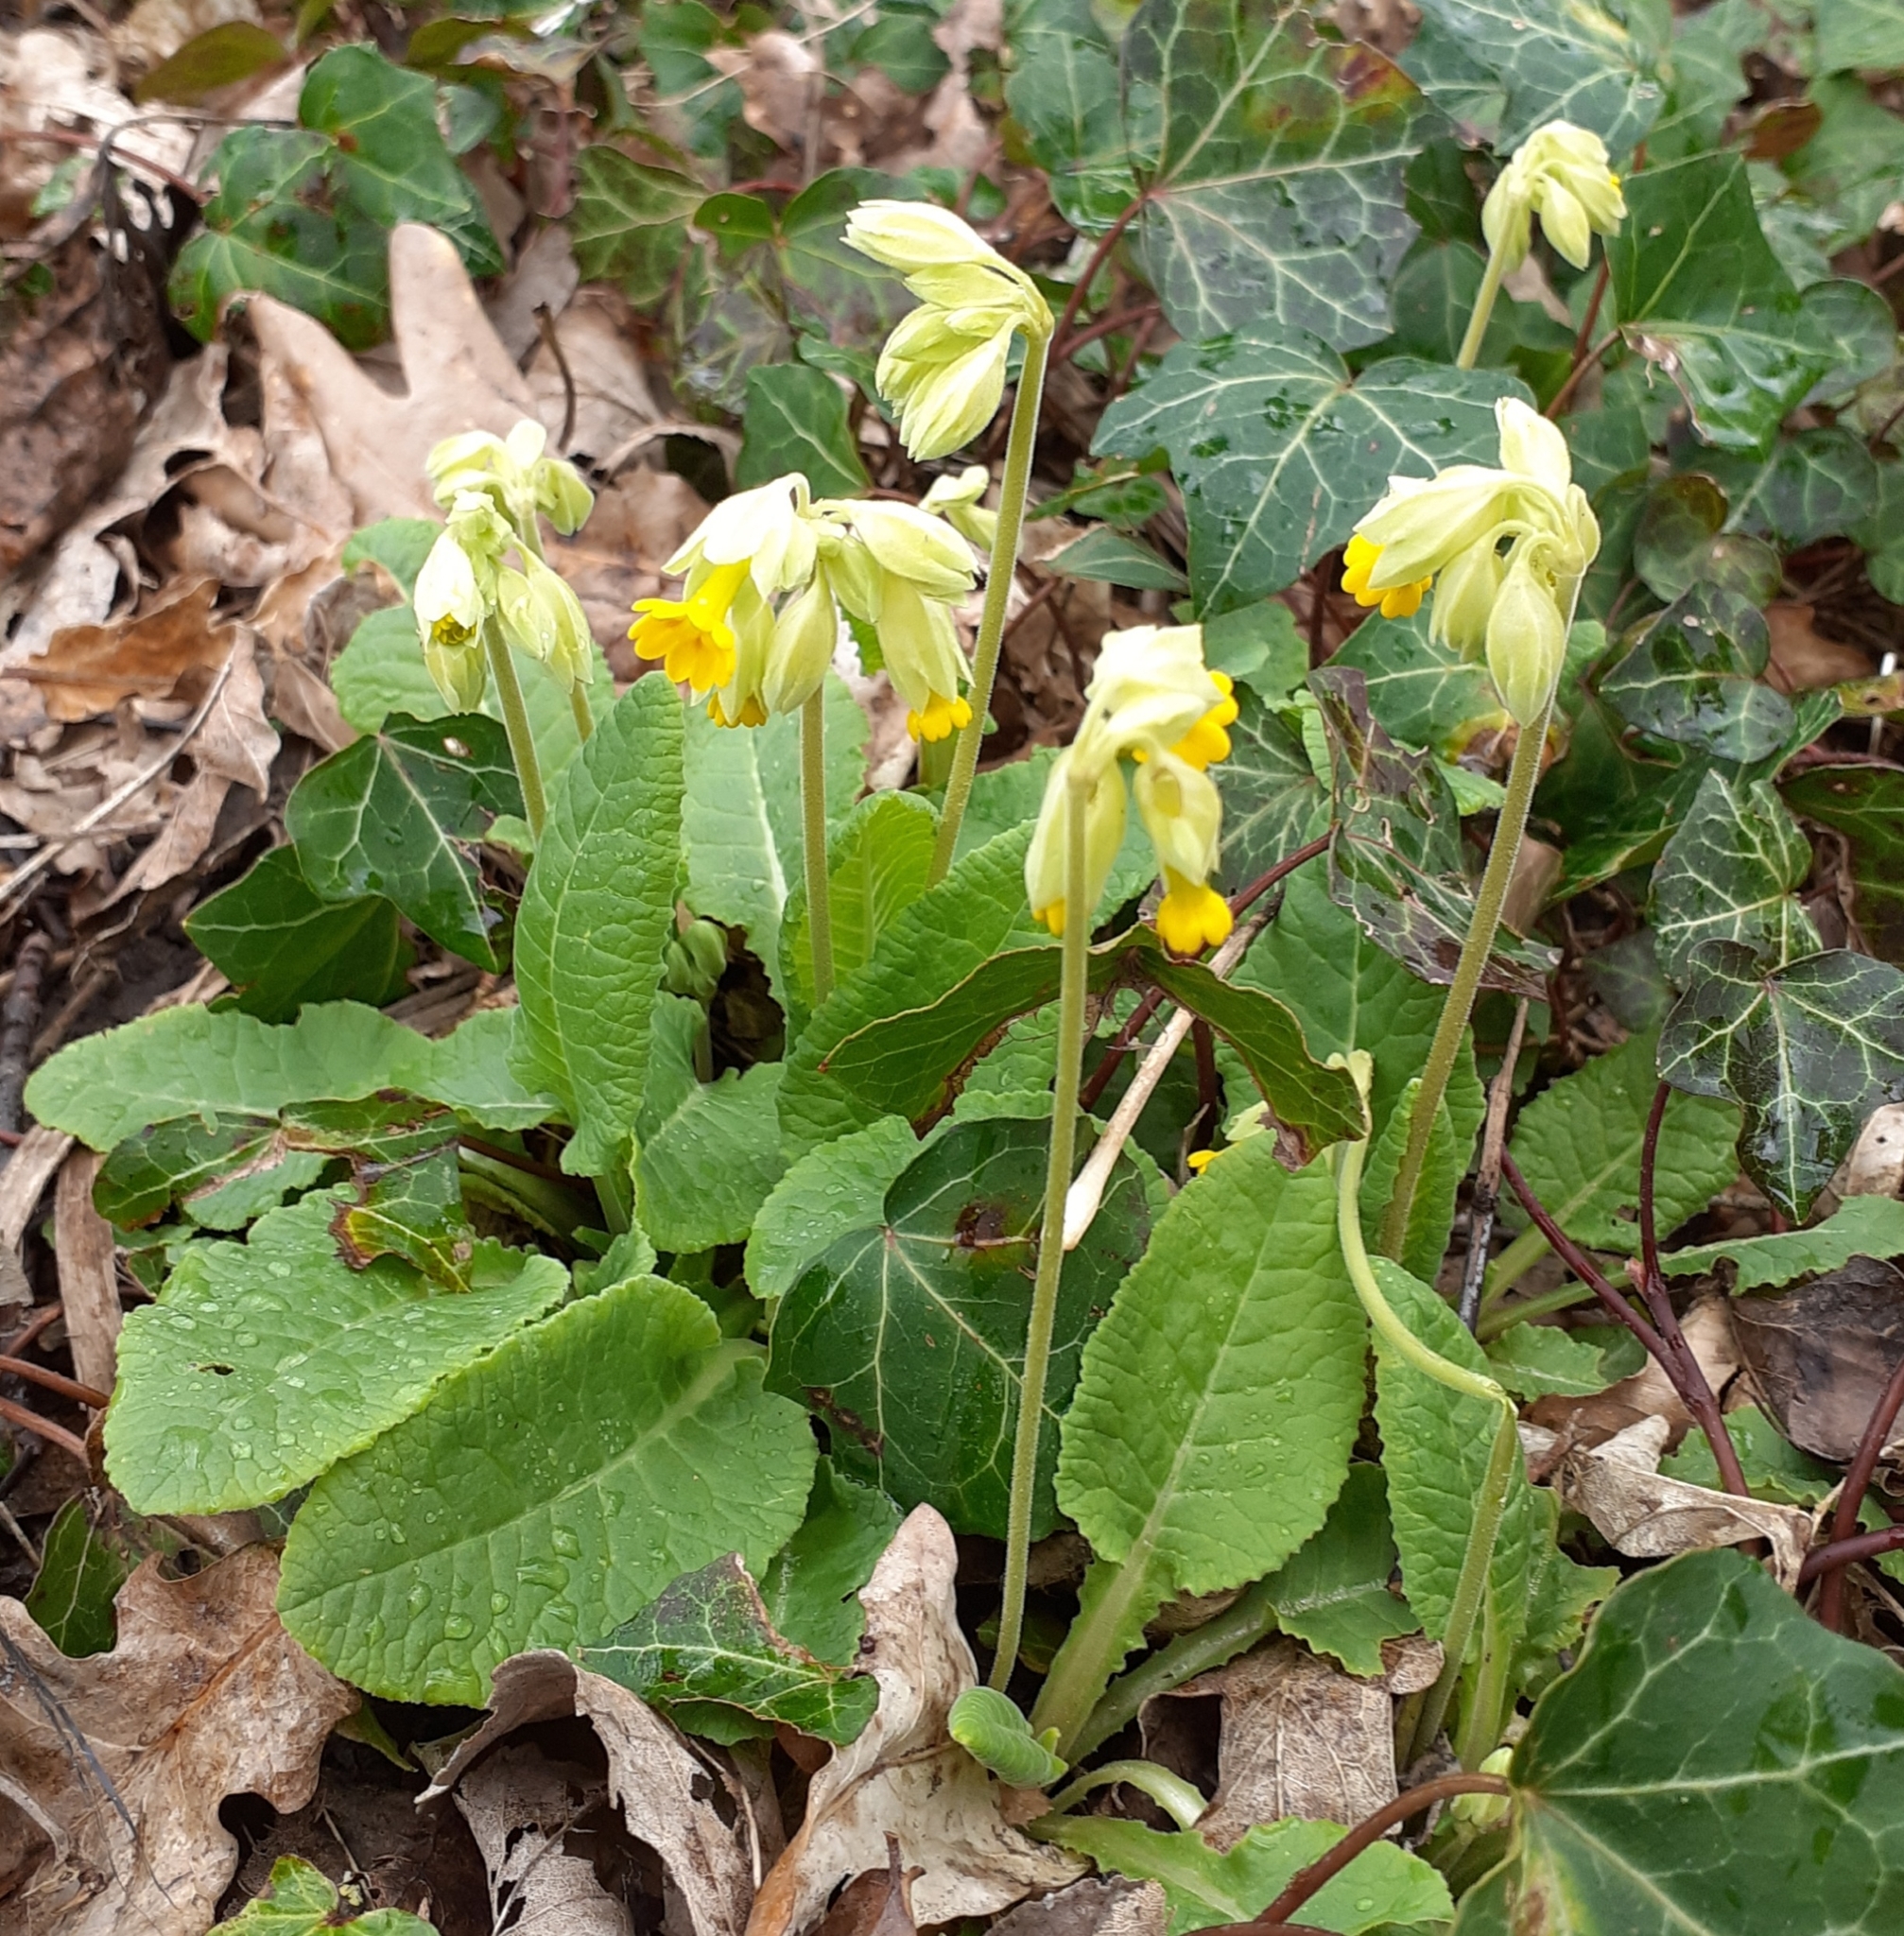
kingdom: Plantae
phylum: Tracheophyta
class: Magnoliopsida
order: Ericales
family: Primulaceae
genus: Primula
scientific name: Primula veris
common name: Cowslip
